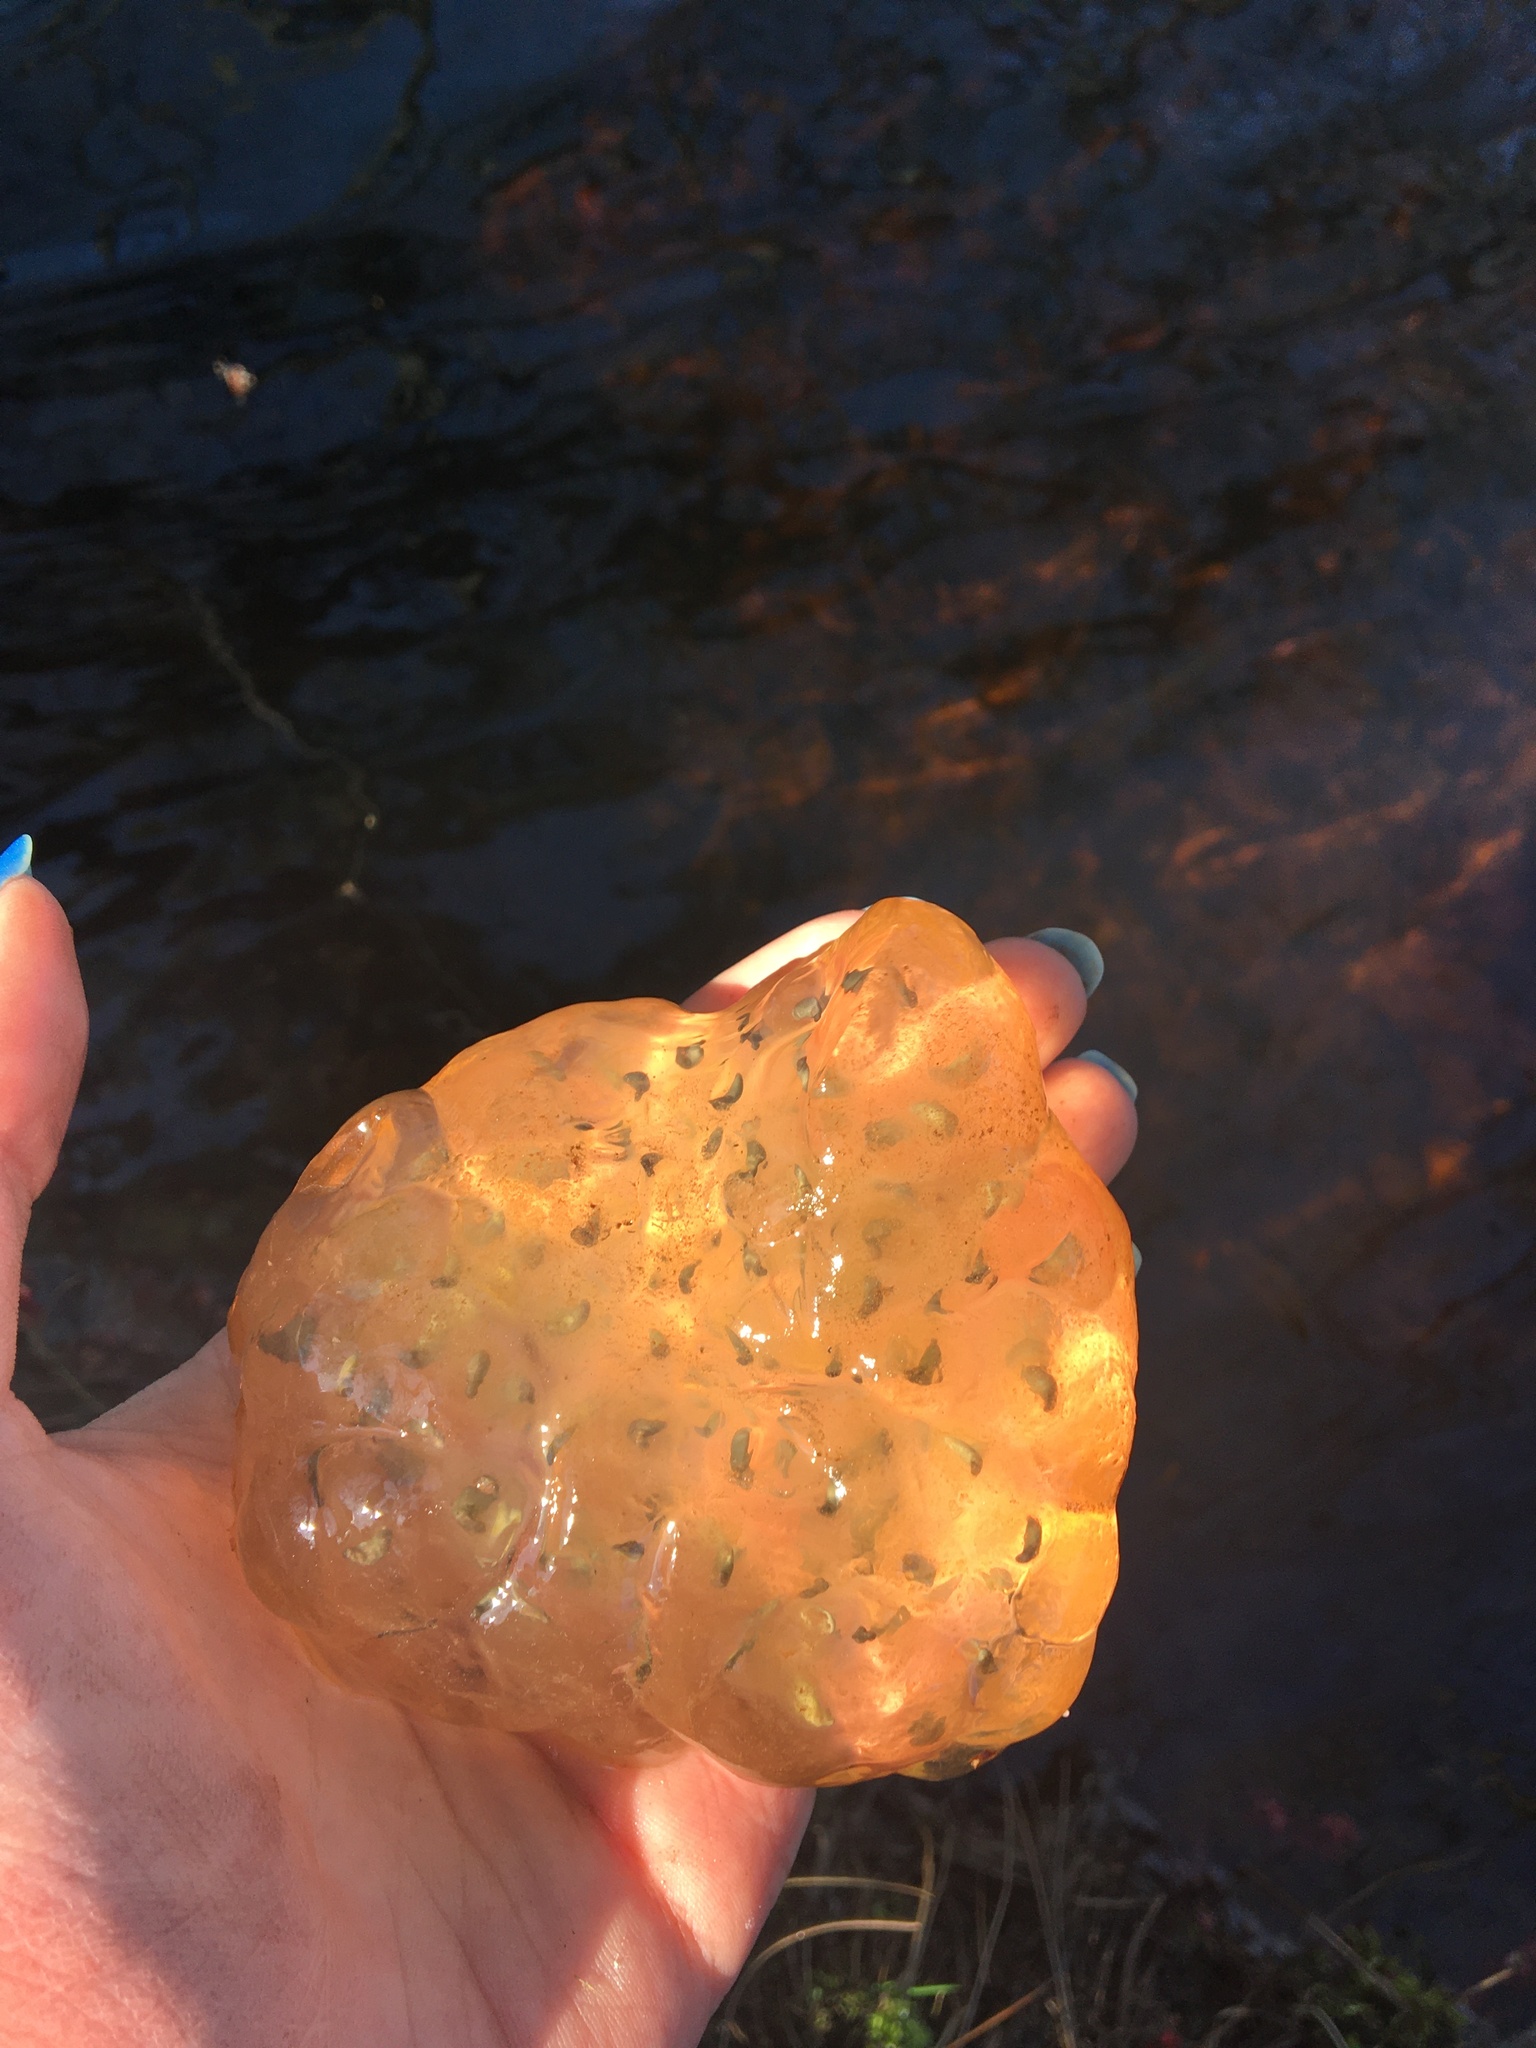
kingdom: Animalia
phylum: Chordata
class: Amphibia
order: Caudata
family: Ambystomatidae
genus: Ambystoma
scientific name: Ambystoma maculatum
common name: Spotted salamander
